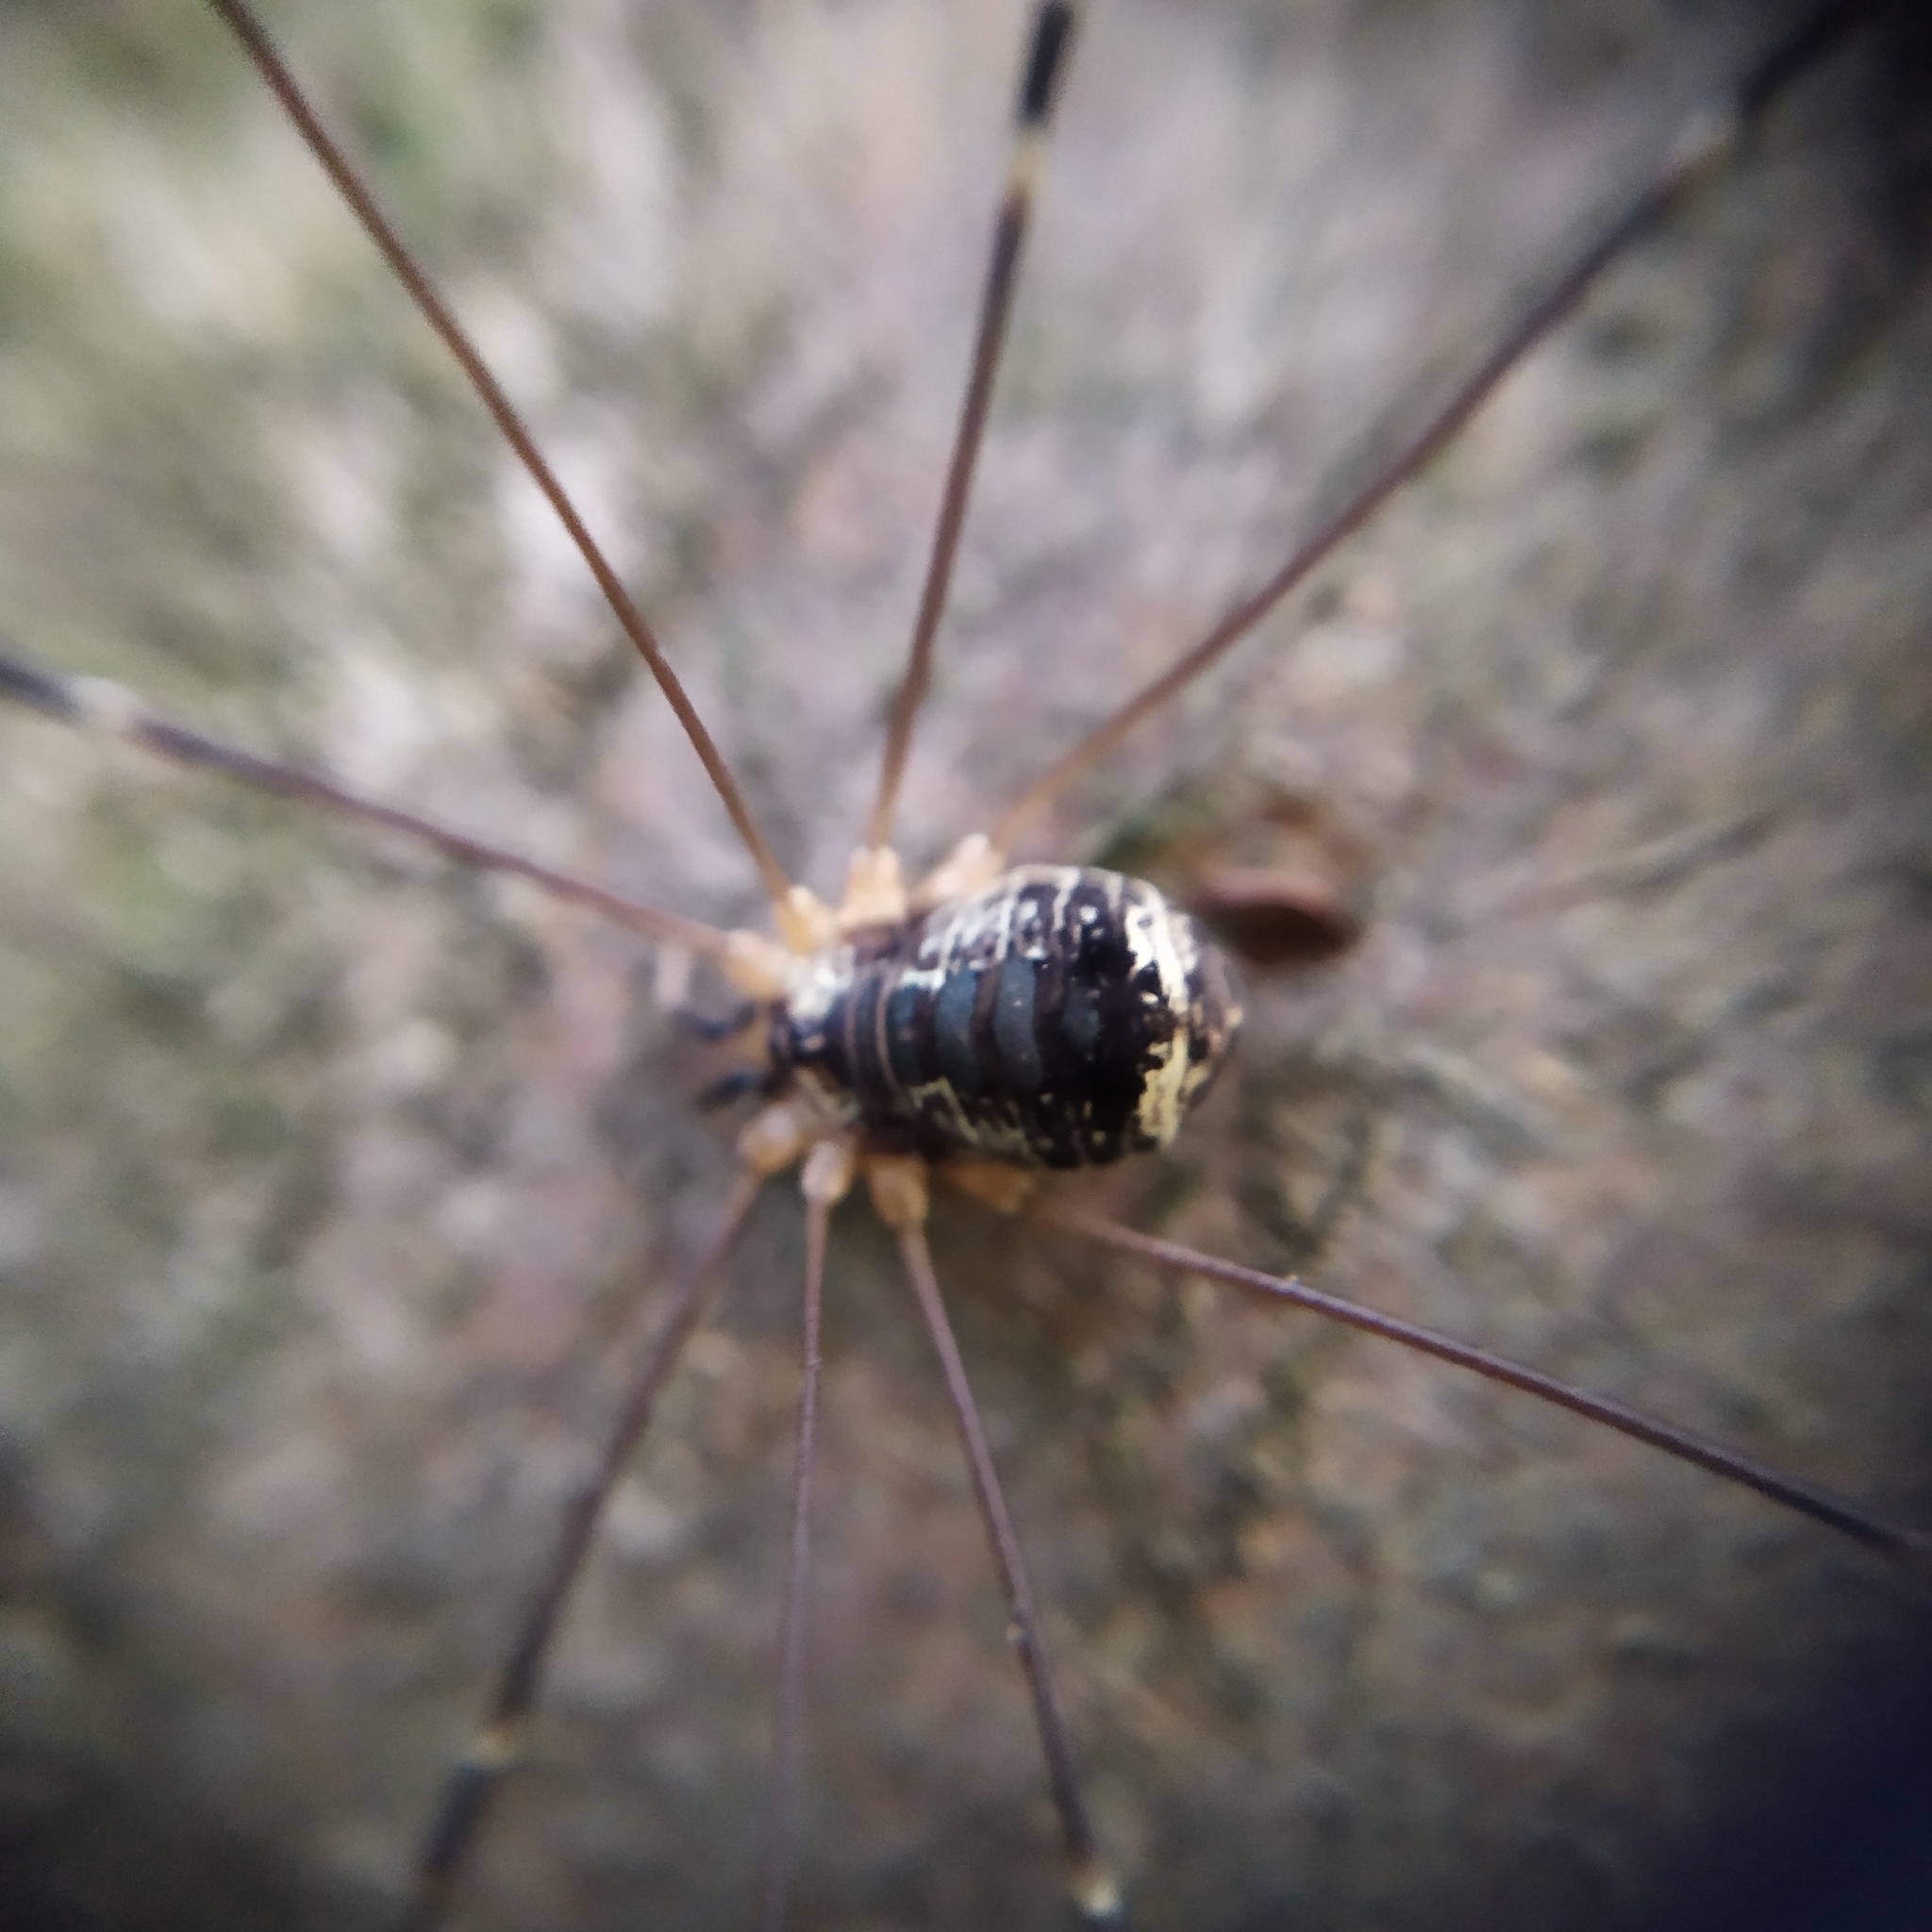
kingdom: Animalia
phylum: Arthropoda
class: Arachnida
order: Opiliones
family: Sclerosomatidae
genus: Leiobunum
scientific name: Leiobunum gracile
